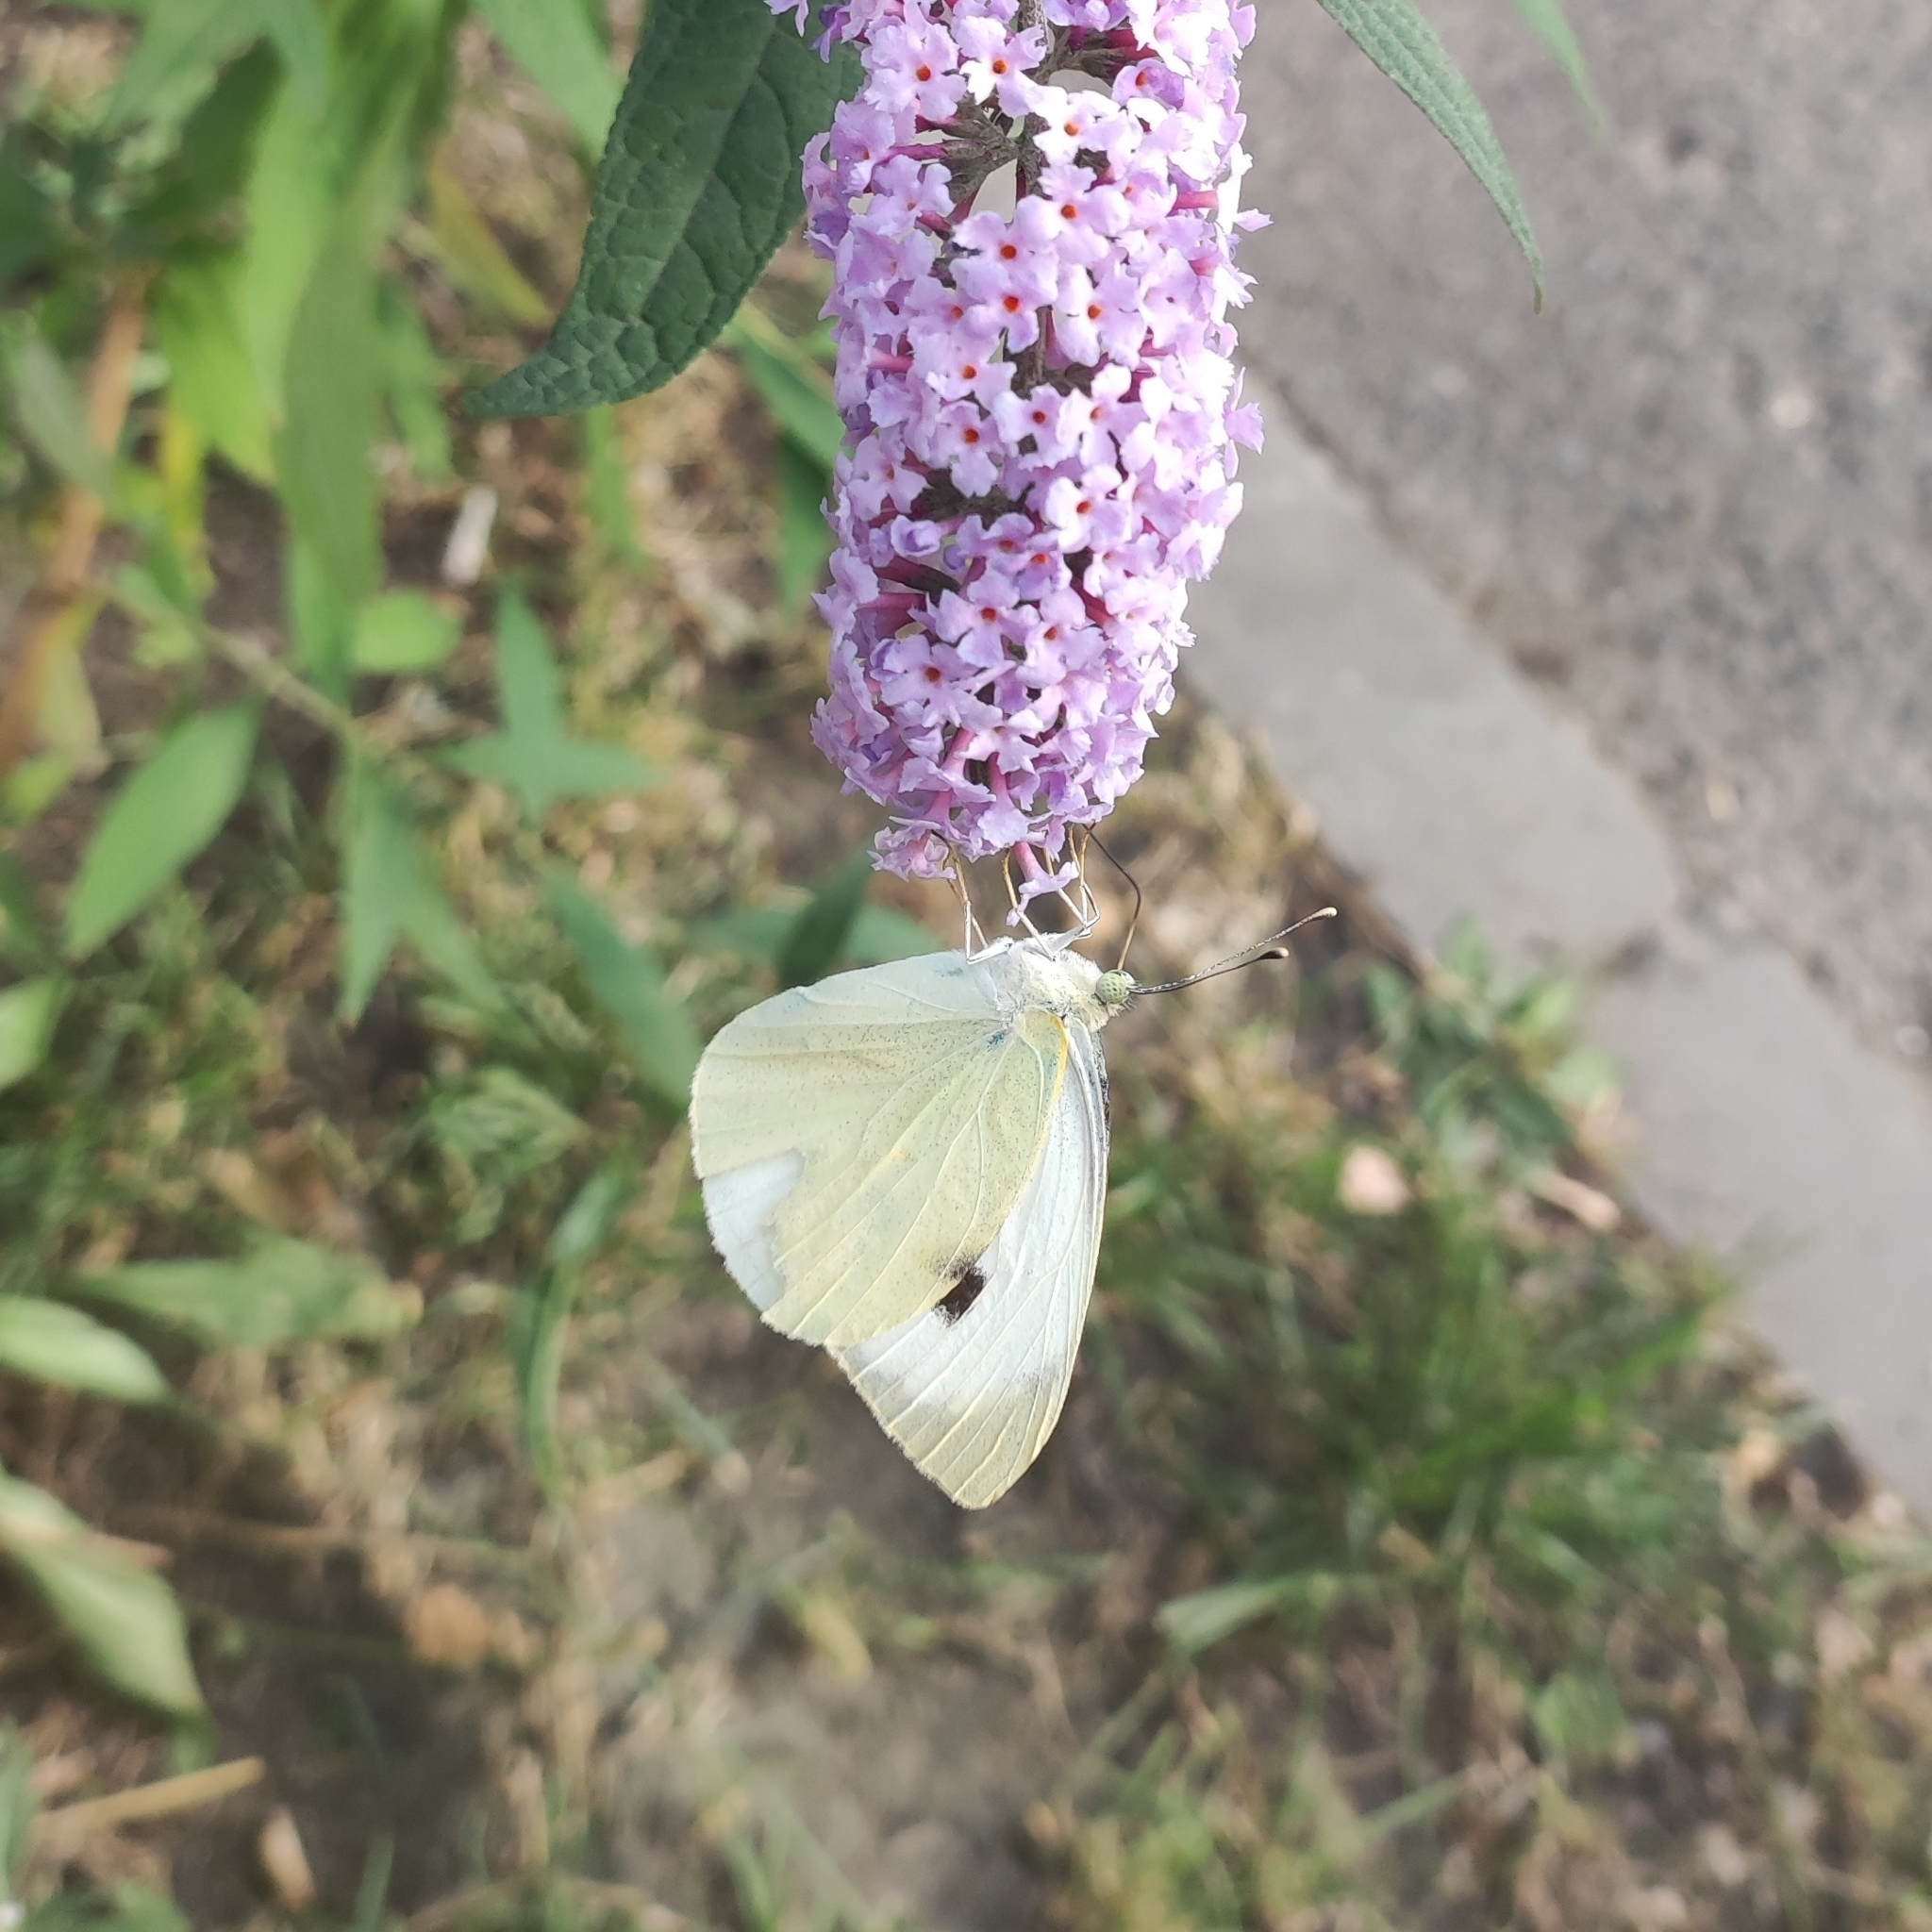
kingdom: Animalia
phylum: Arthropoda
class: Insecta
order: Lepidoptera
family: Pieridae
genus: Pieris
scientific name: Pieris brassicae
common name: Large white
